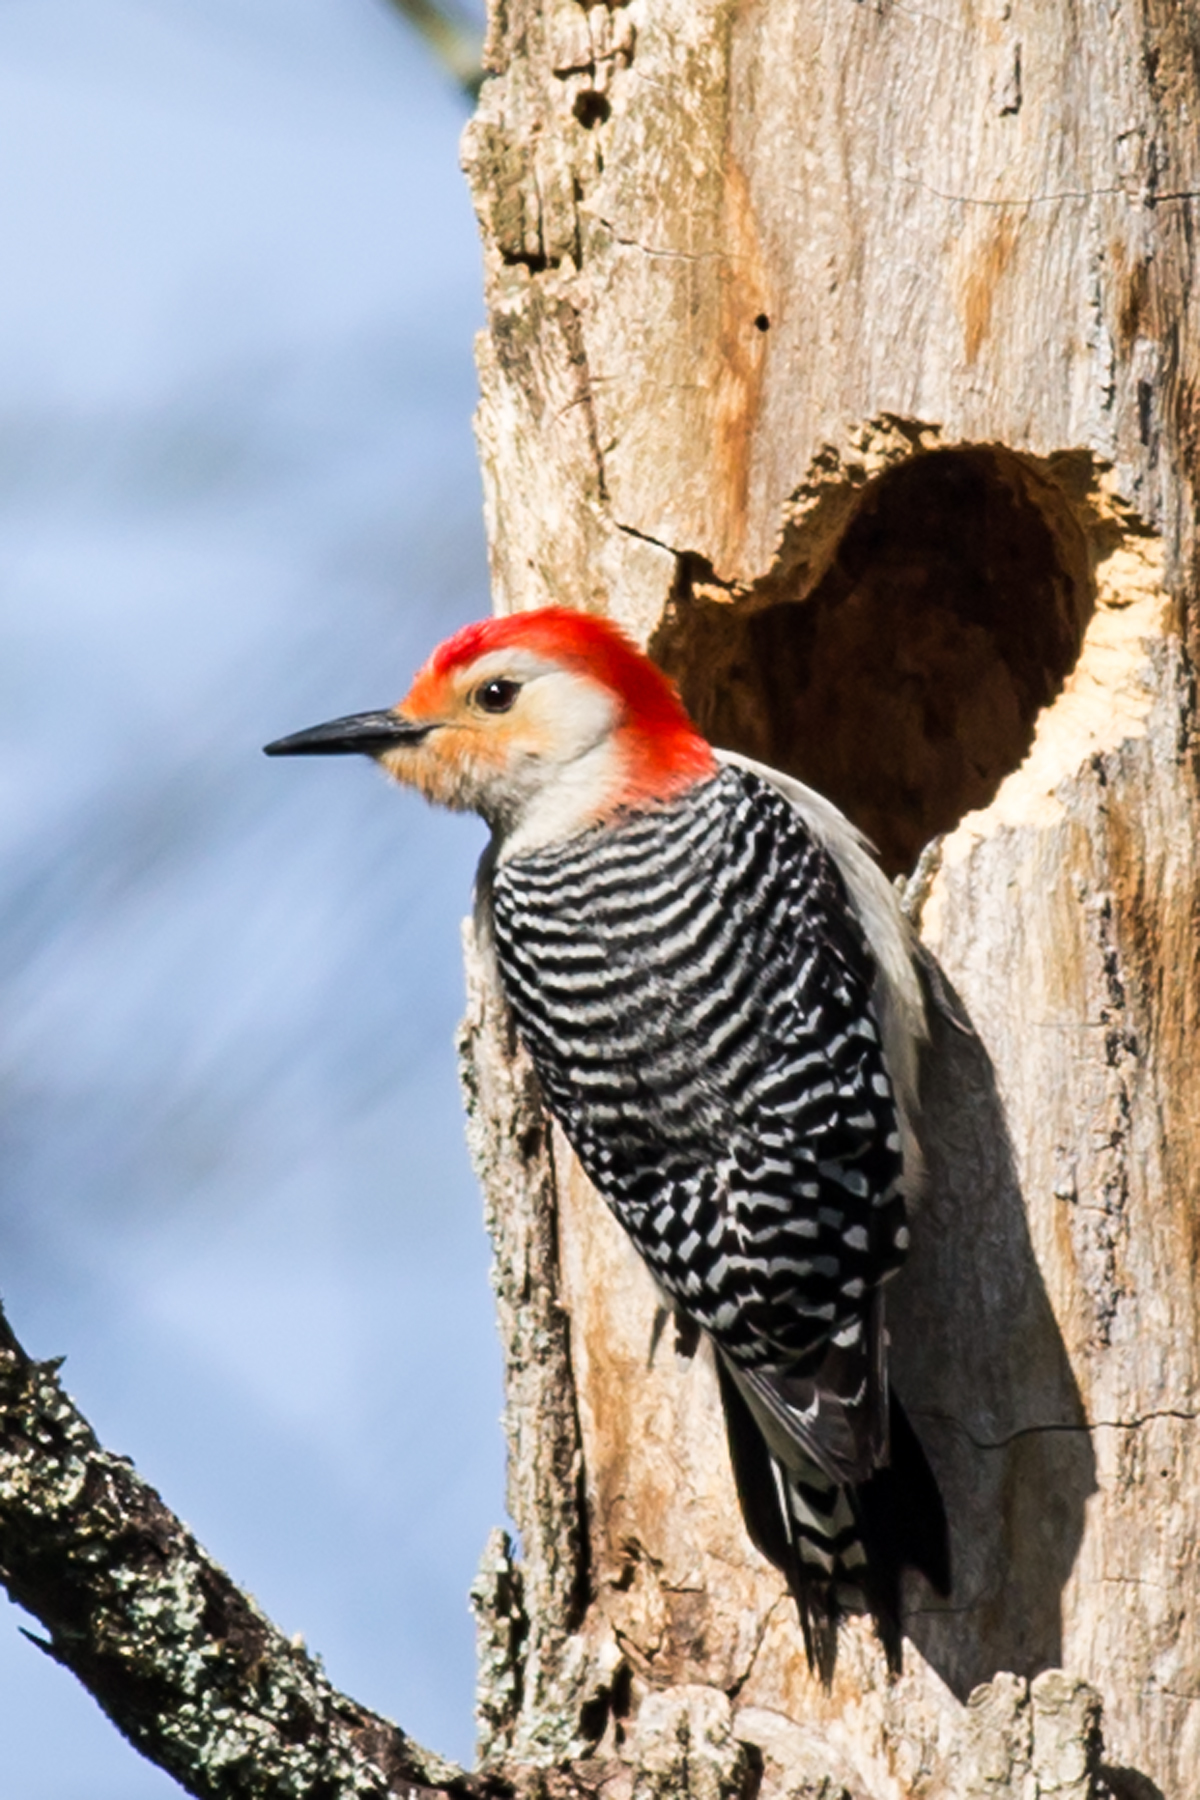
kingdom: Animalia
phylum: Chordata
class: Aves
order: Piciformes
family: Picidae
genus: Melanerpes
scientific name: Melanerpes carolinus
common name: Red-bellied woodpecker
